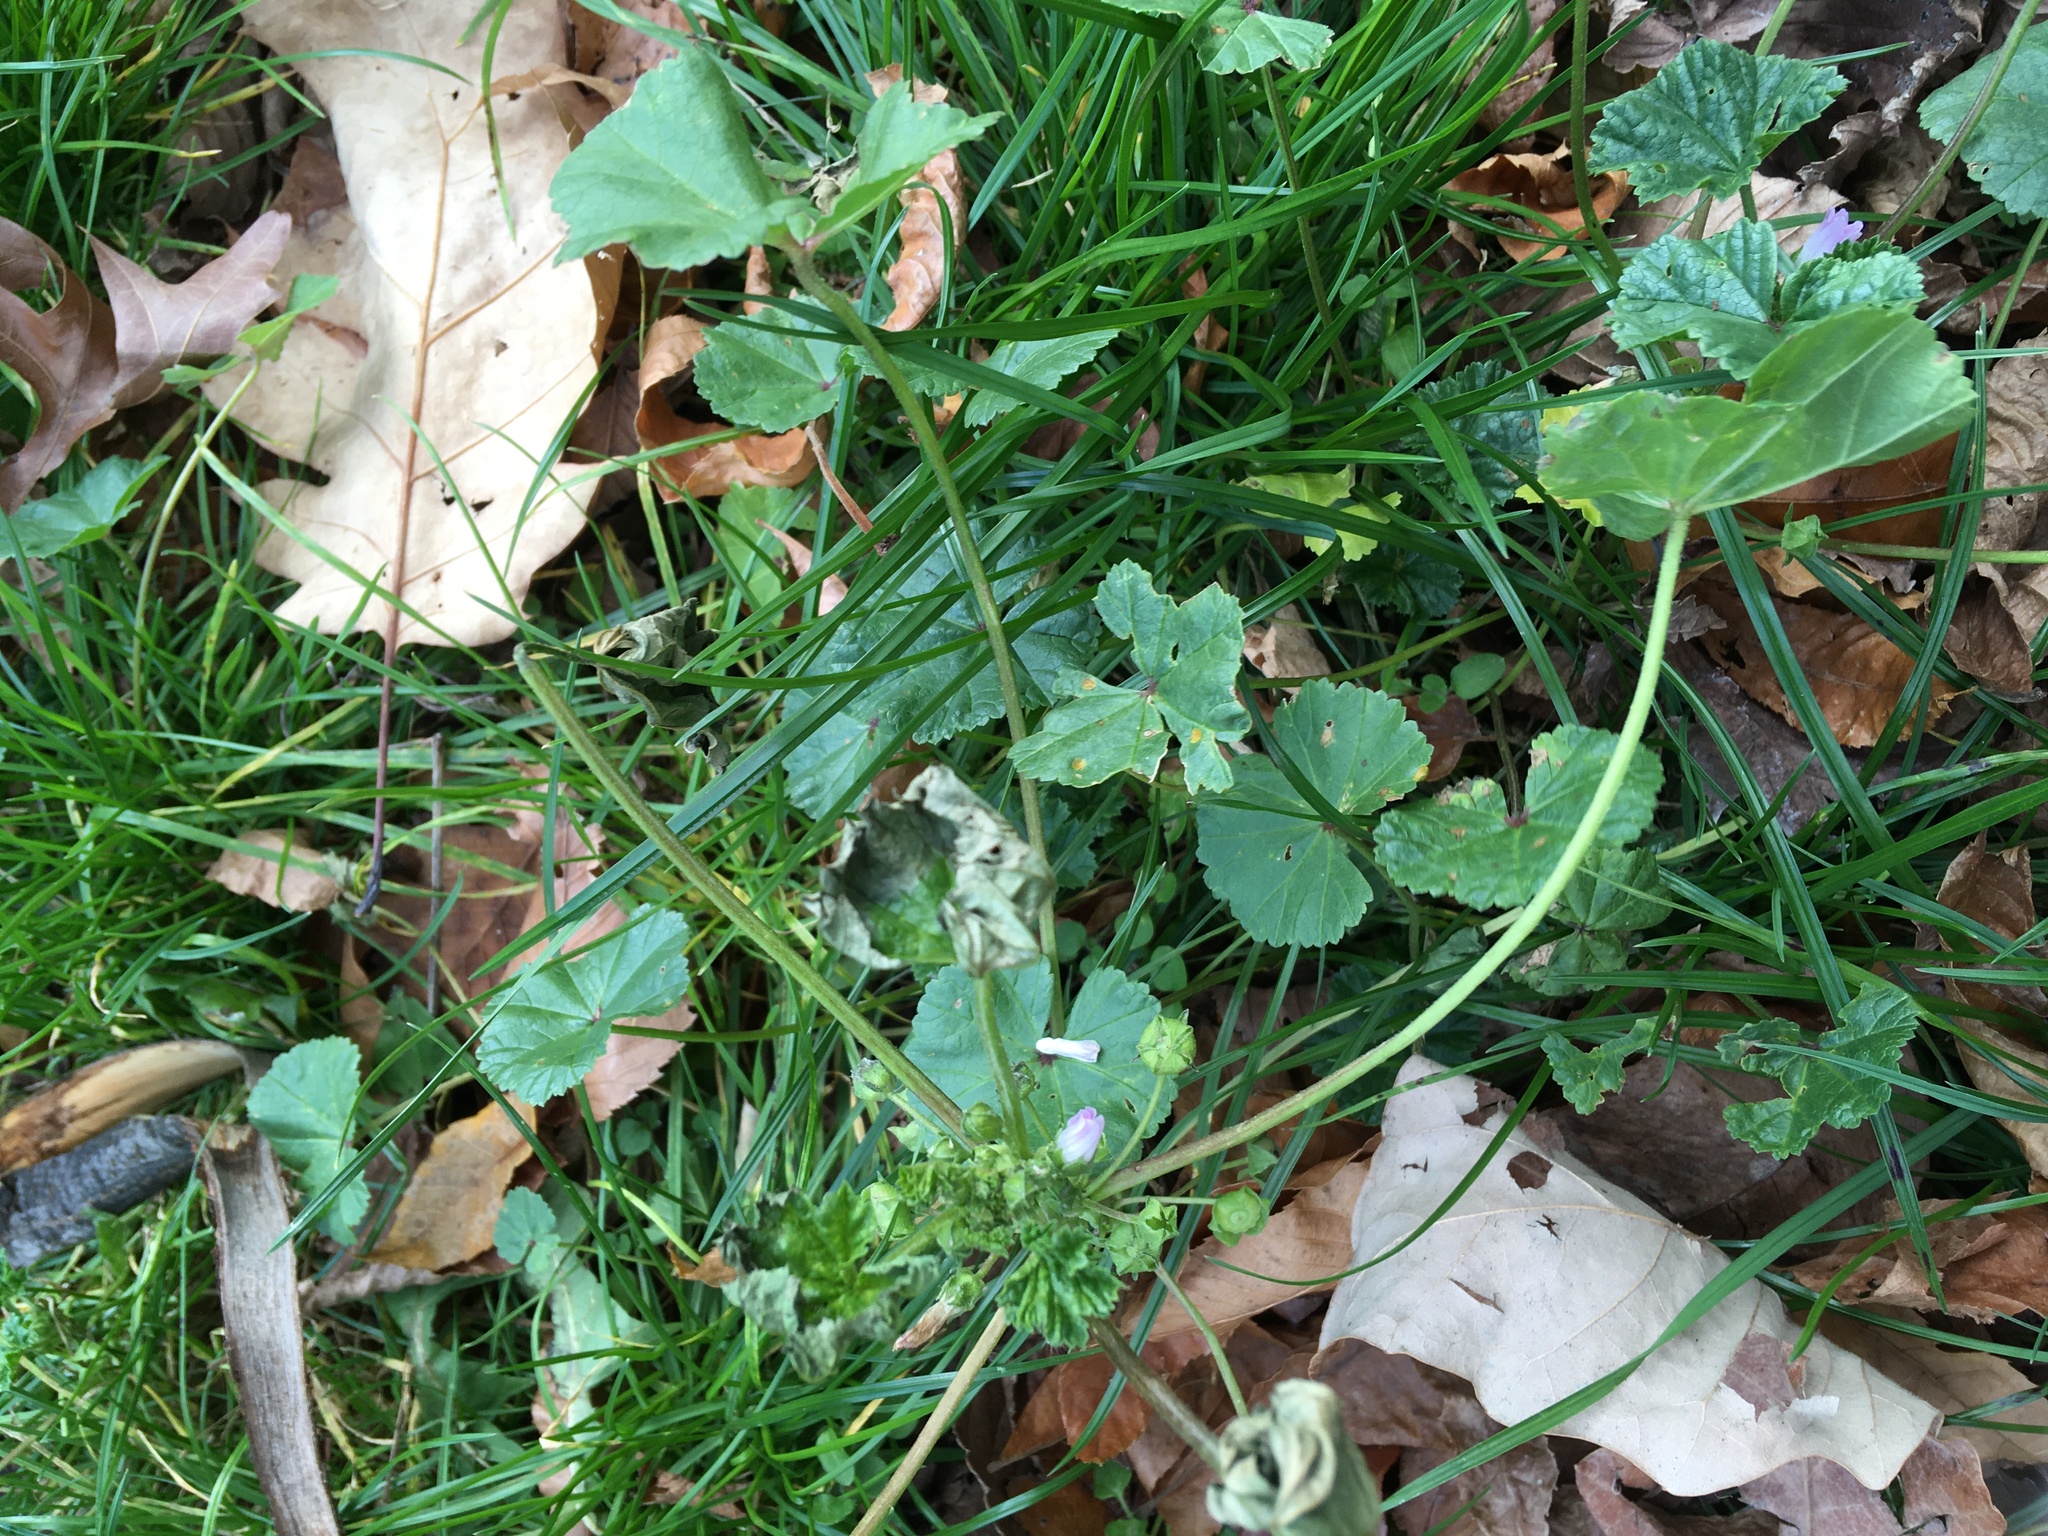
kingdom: Plantae
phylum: Tracheophyta
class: Magnoliopsida
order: Malvales
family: Malvaceae
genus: Malva
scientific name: Malva neglecta
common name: Common mallow
